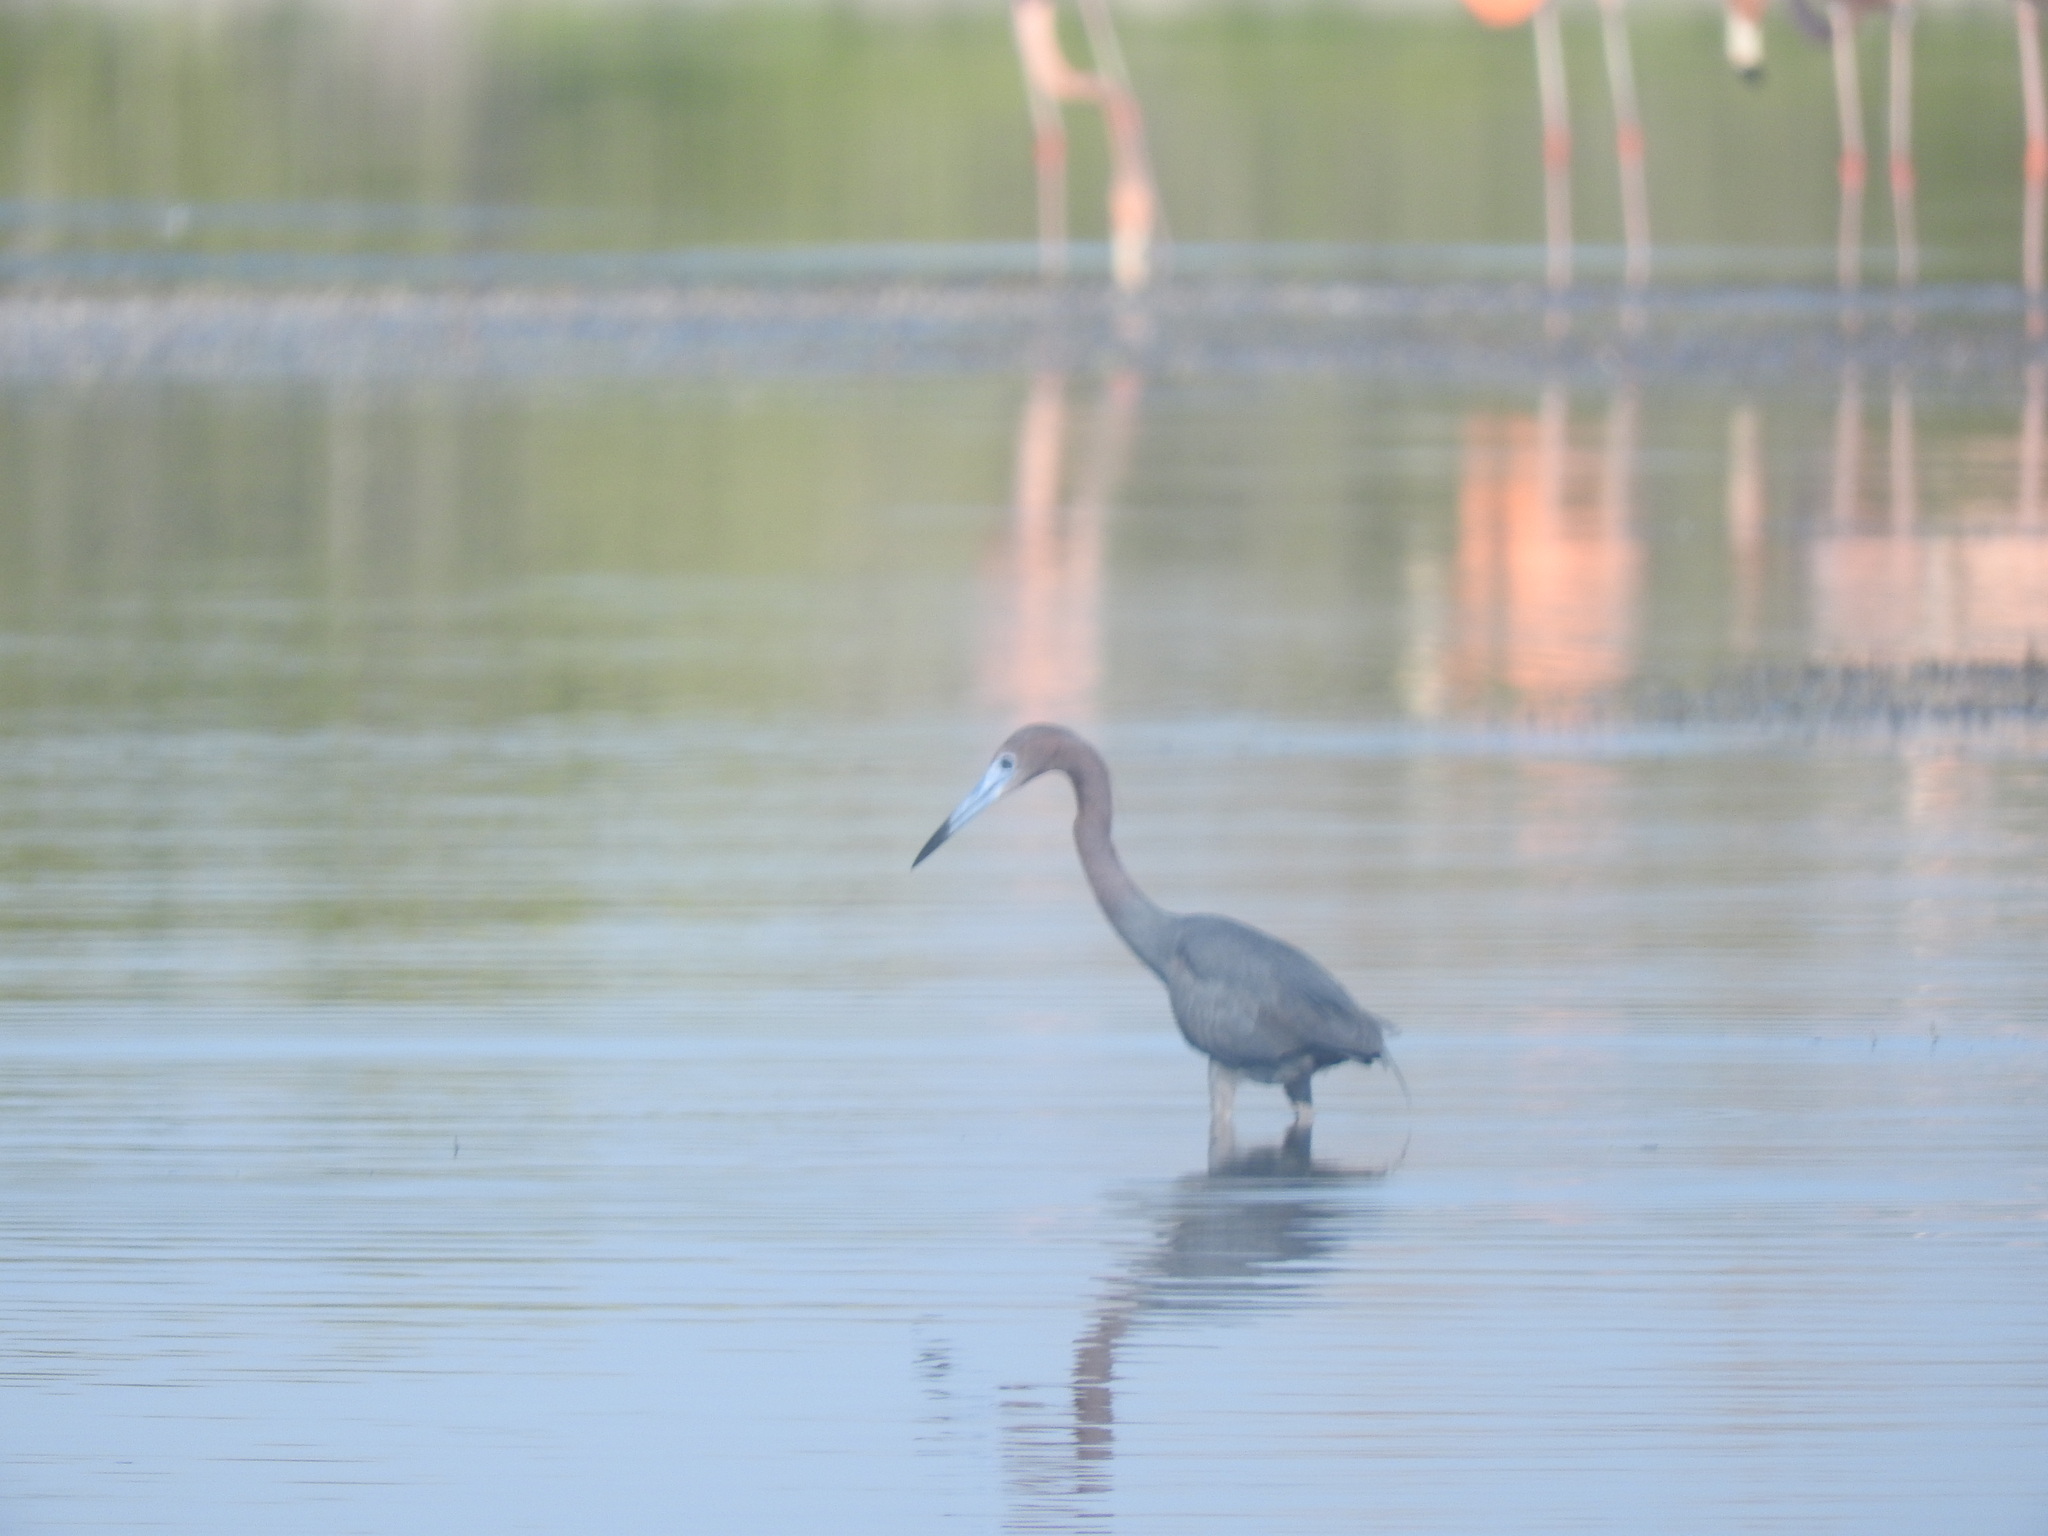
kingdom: Animalia
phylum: Chordata
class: Aves
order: Pelecaniformes
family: Ardeidae
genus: Egretta
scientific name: Egretta caerulea
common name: Little blue heron
